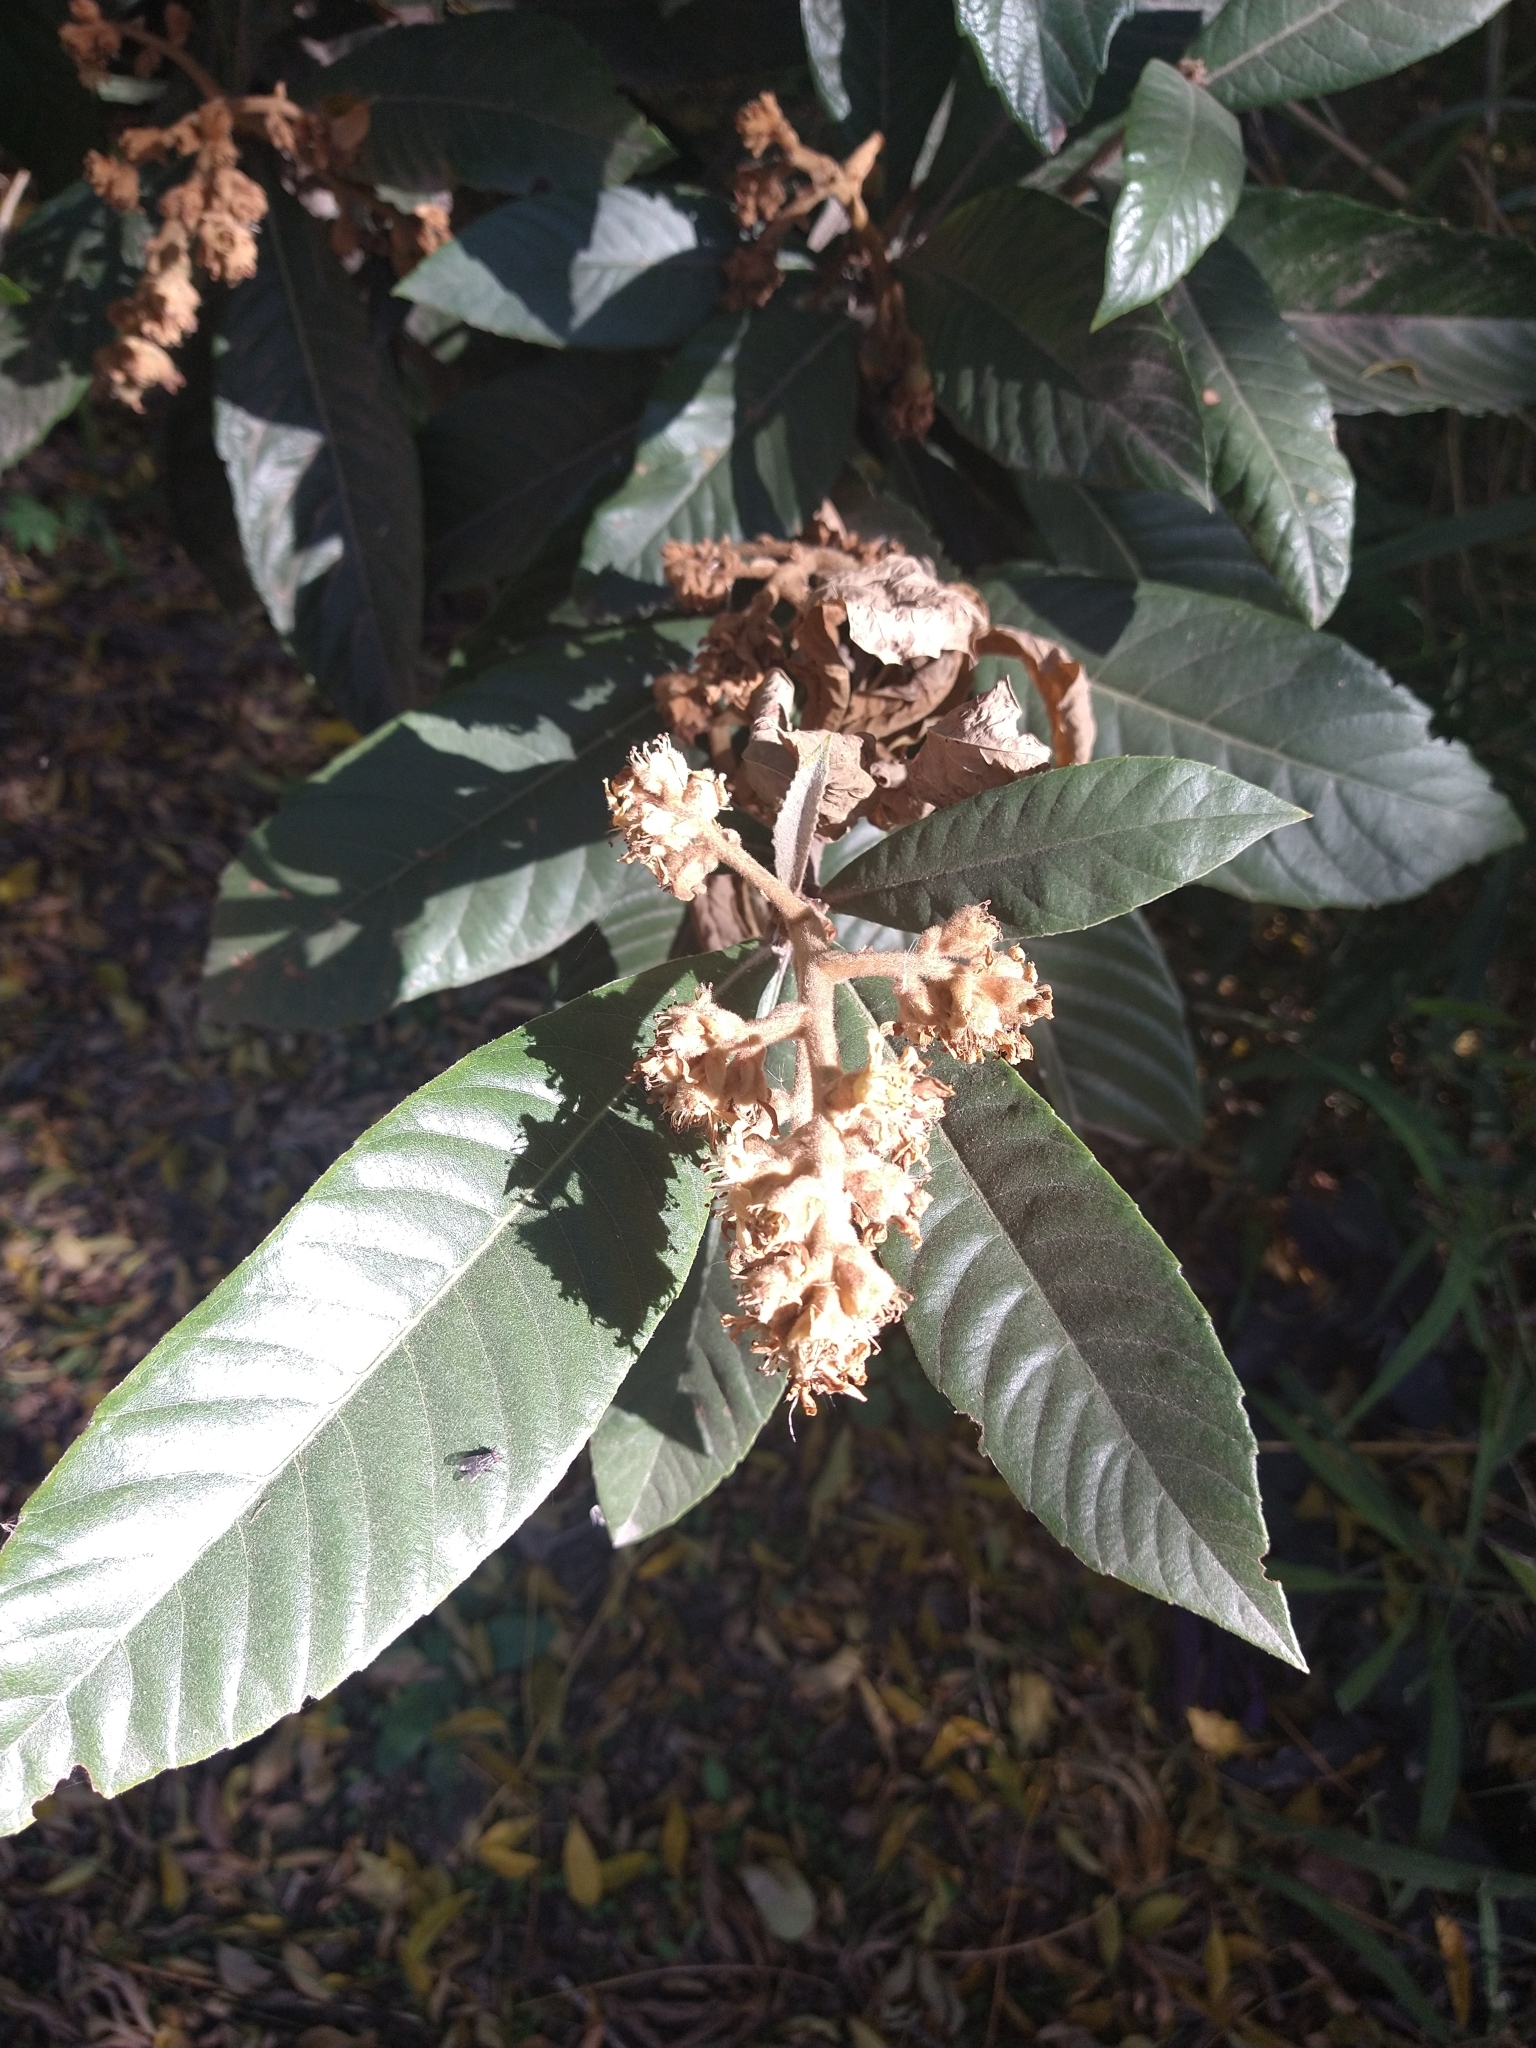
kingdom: Plantae
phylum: Tracheophyta
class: Magnoliopsida
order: Rosales
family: Rosaceae
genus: Rhaphiolepis
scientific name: Rhaphiolepis bibas
